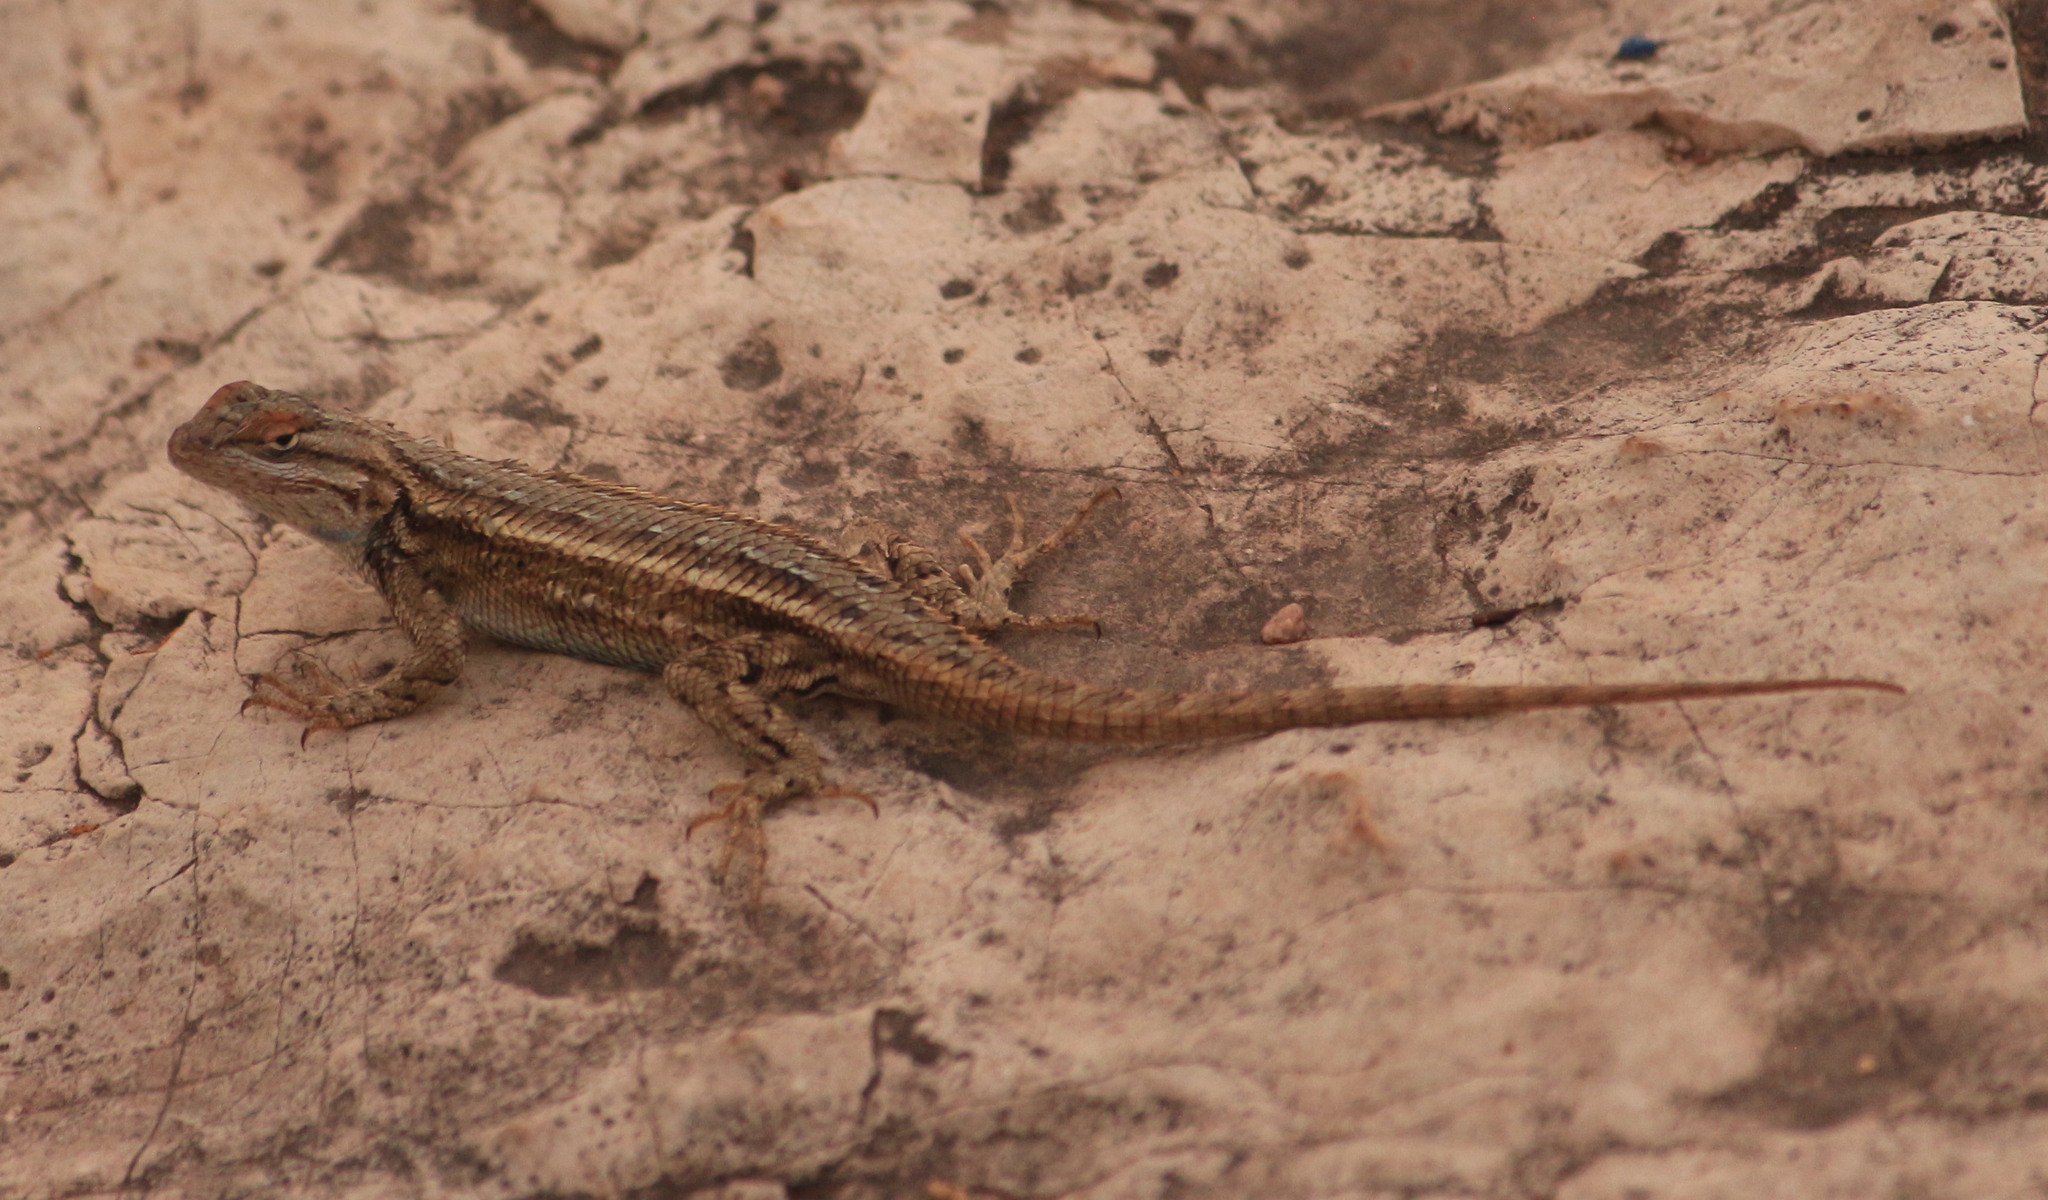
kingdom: Animalia
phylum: Chordata
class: Squamata
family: Phrynosomatidae
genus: Sceloporus
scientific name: Sceloporus tristichus
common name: Plateau fence lizard
